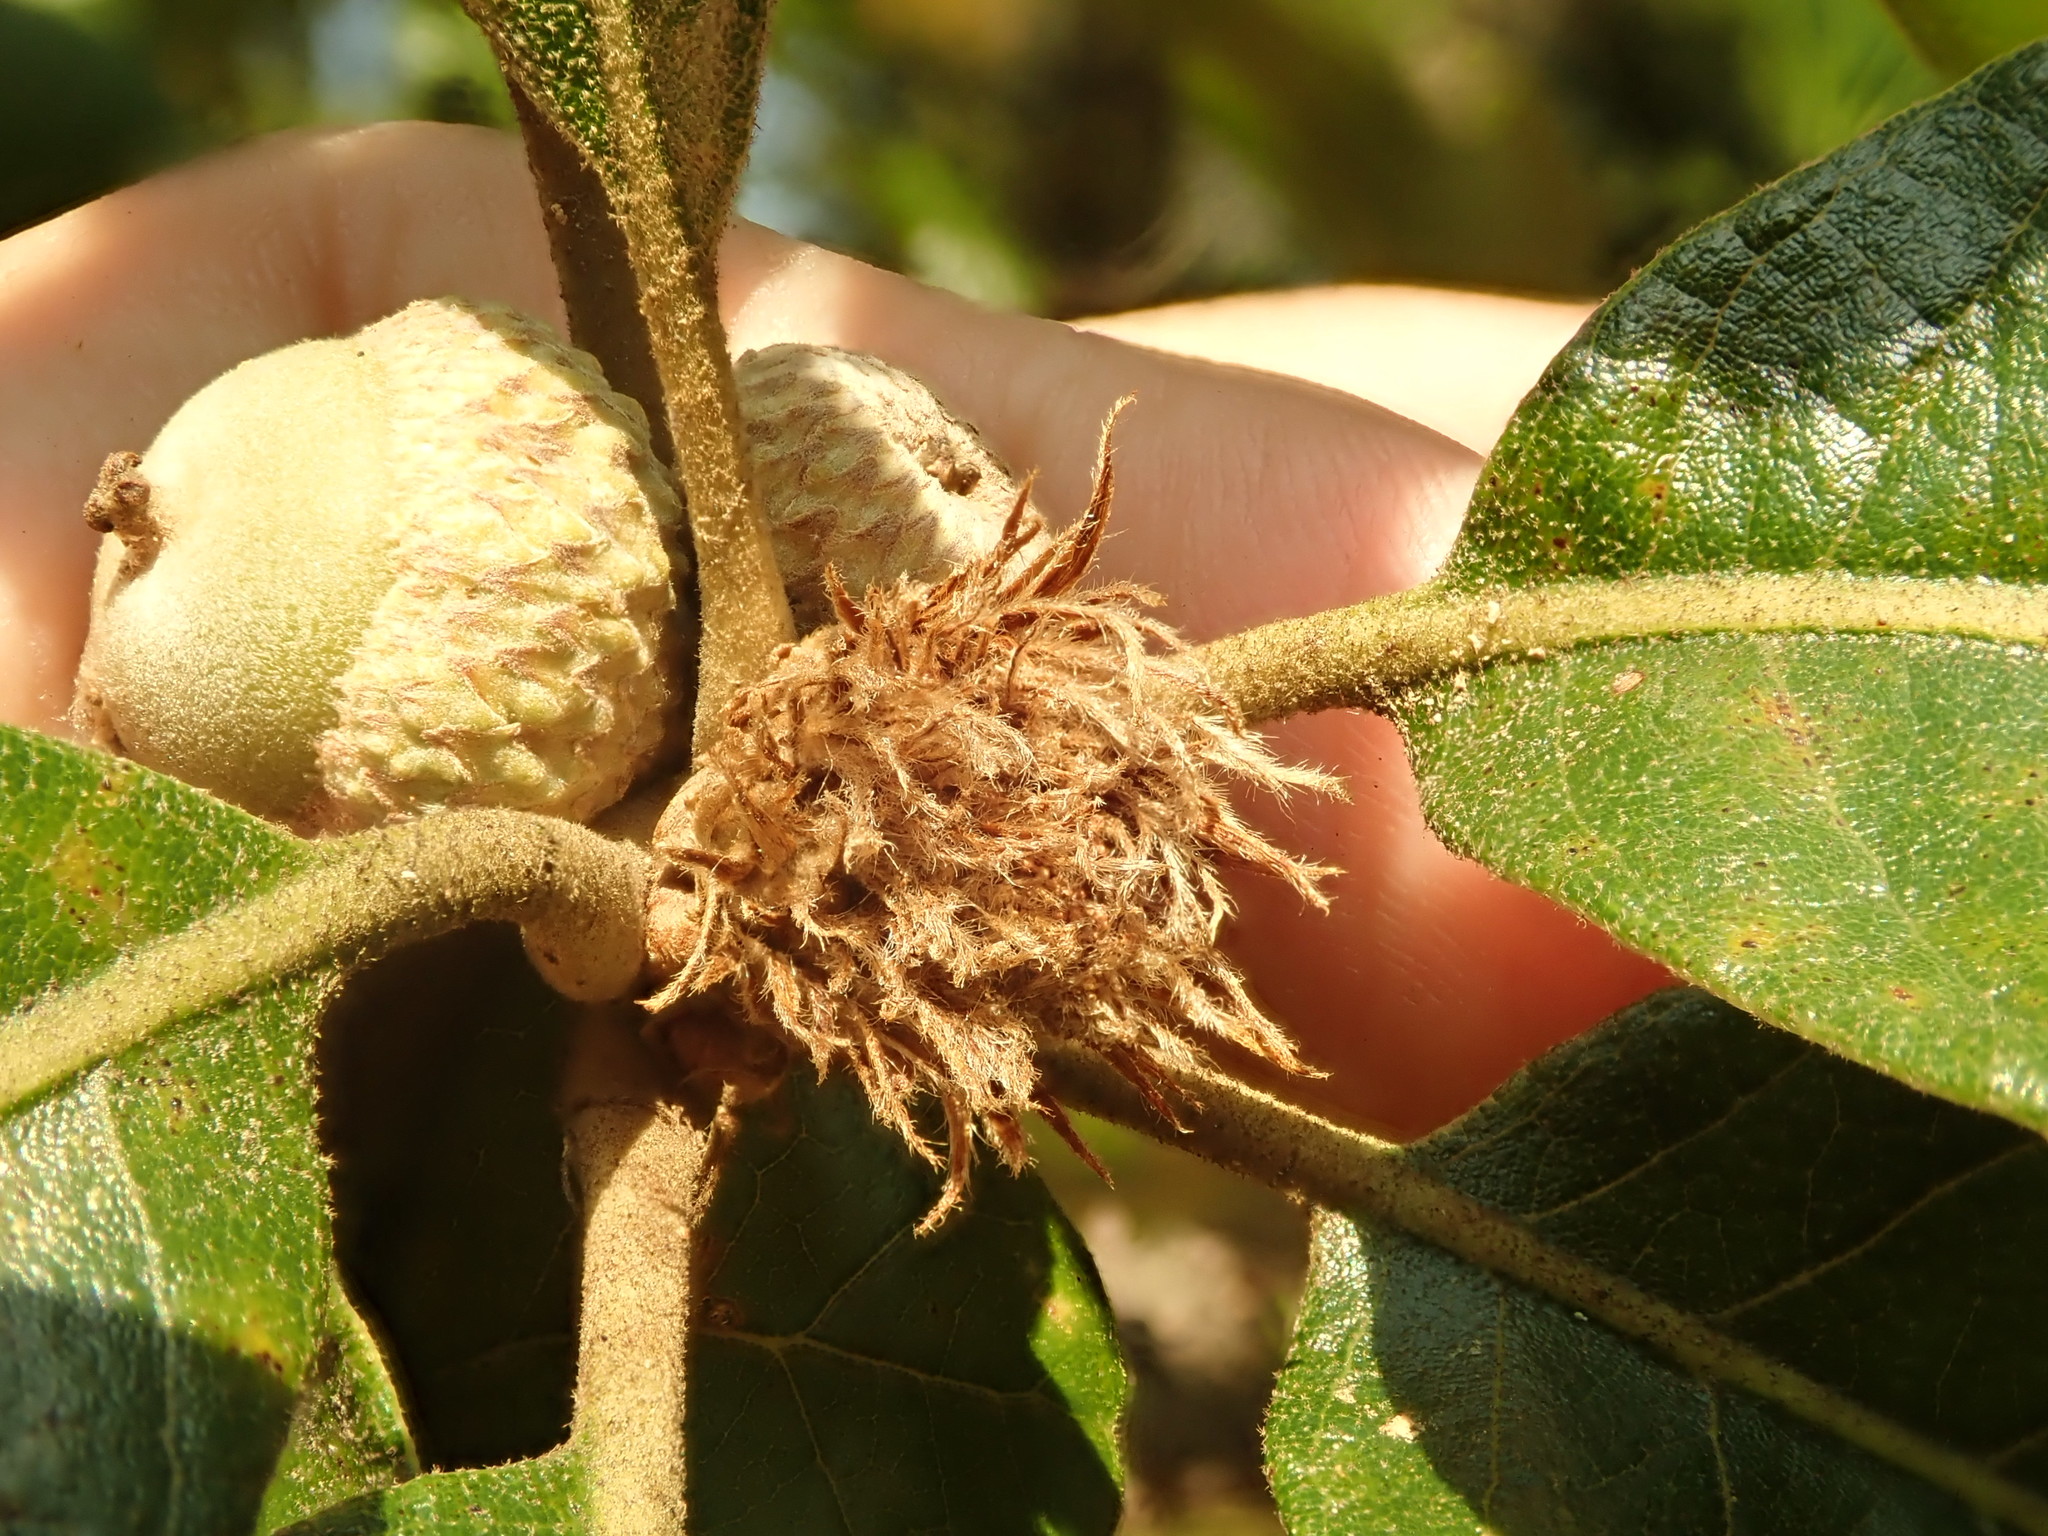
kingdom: Animalia
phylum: Arthropoda
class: Insecta
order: Hymenoptera
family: Cynipidae
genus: Andricus
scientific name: Andricus
